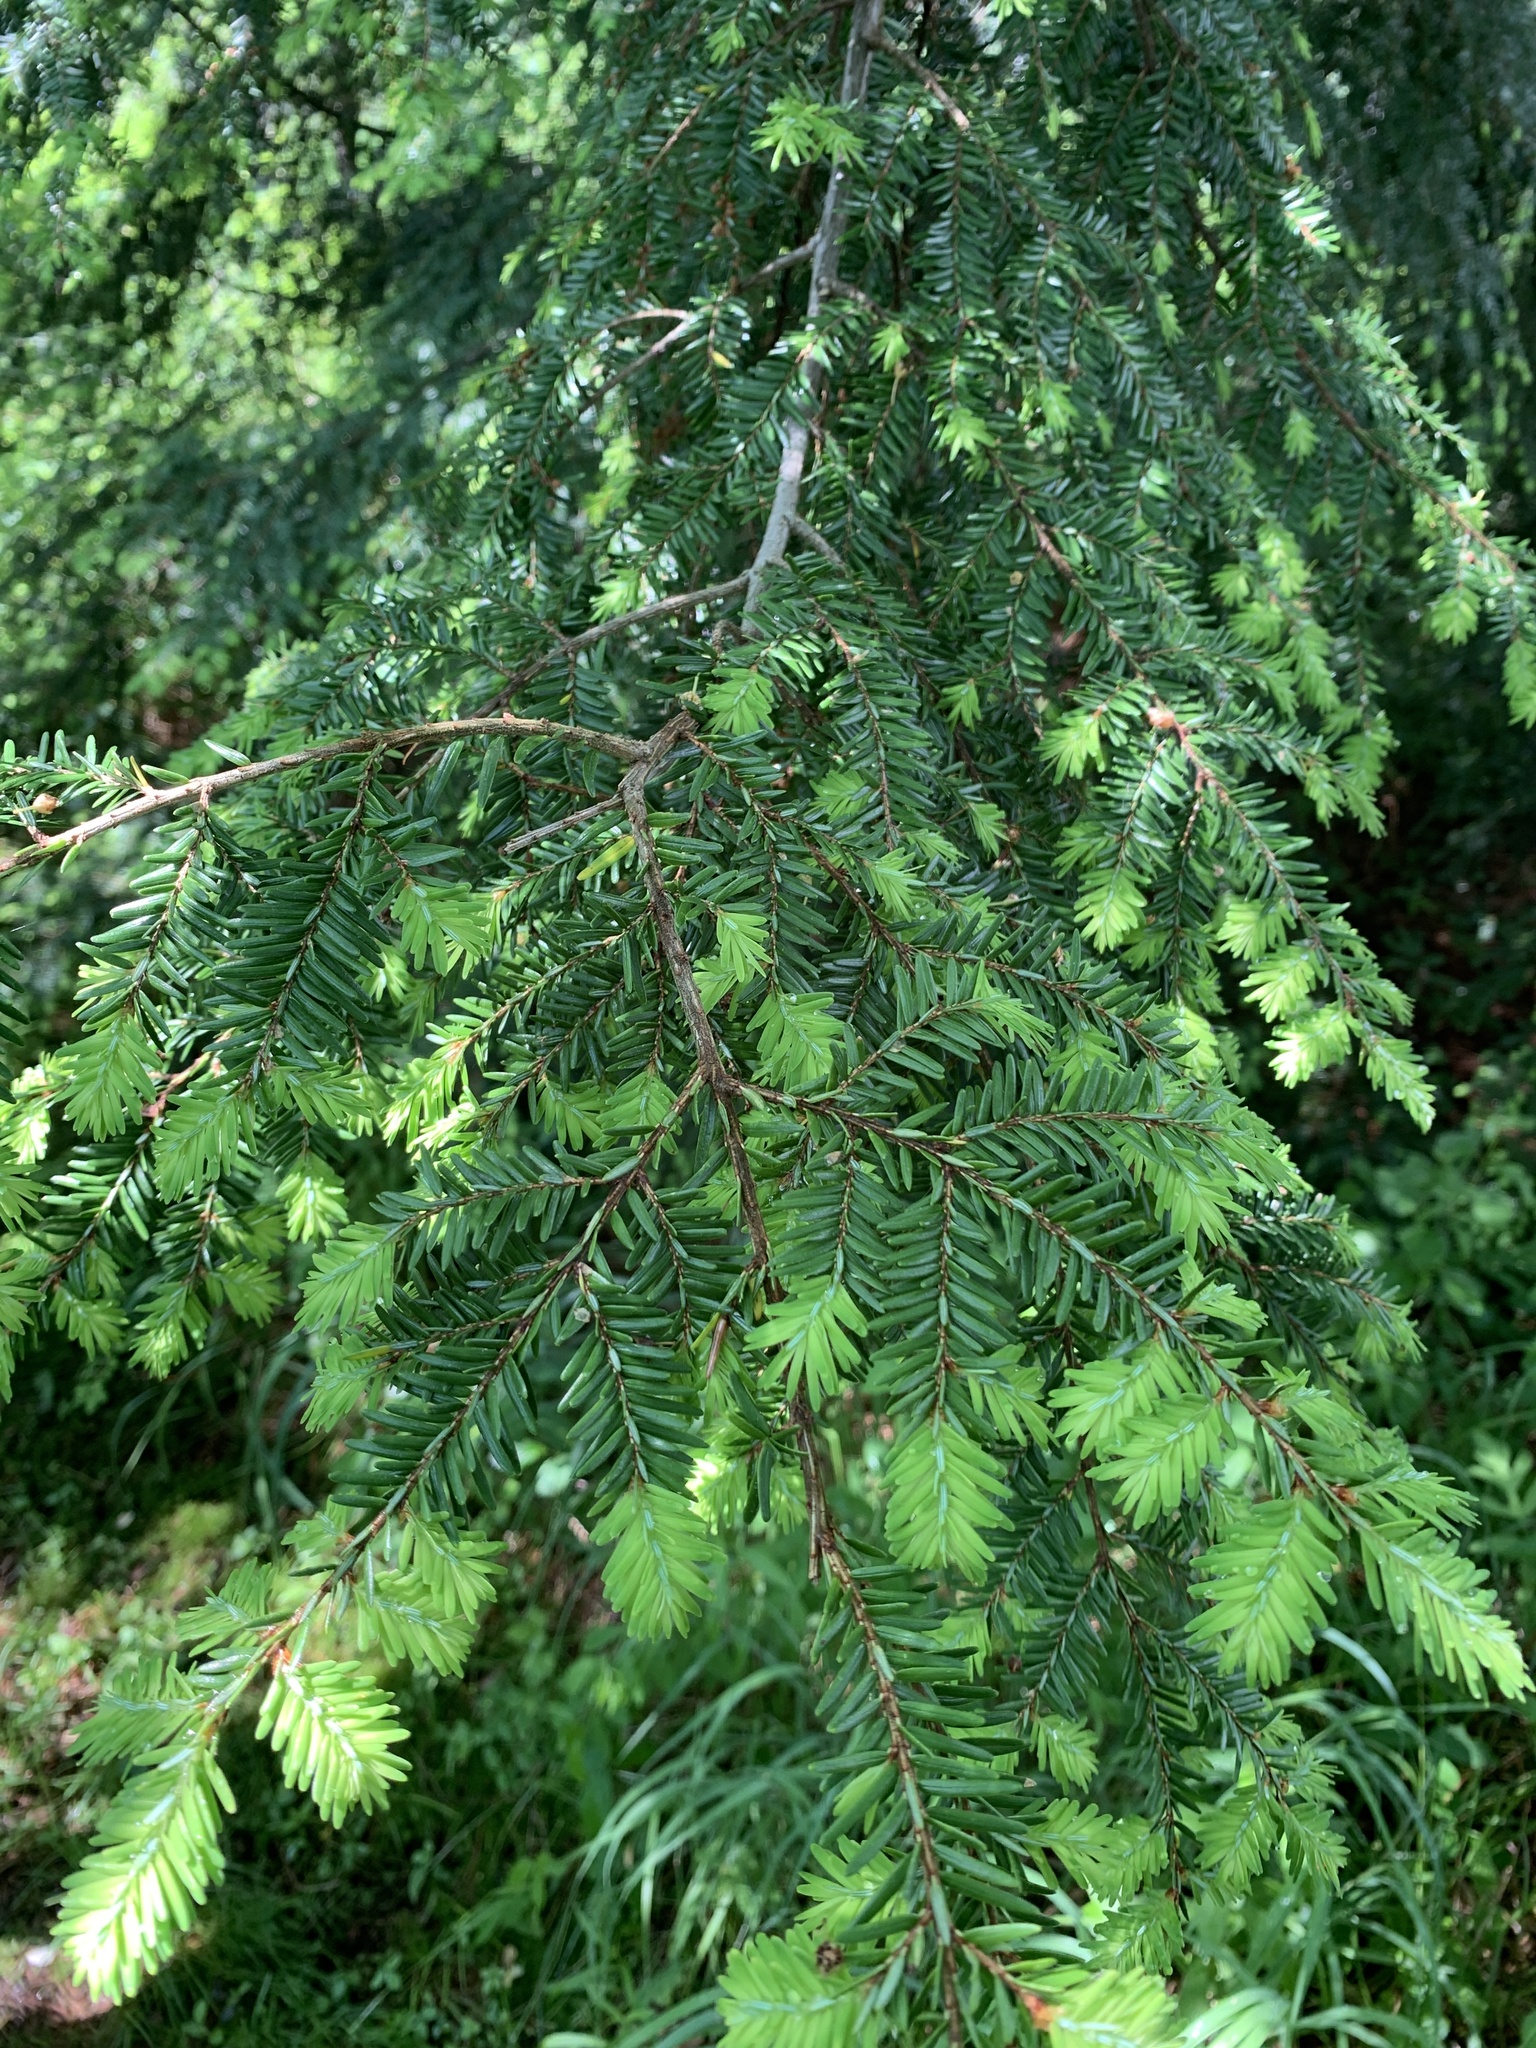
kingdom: Plantae
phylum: Tracheophyta
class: Pinopsida
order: Pinales
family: Pinaceae
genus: Tsuga
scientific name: Tsuga canadensis
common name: Eastern hemlock
